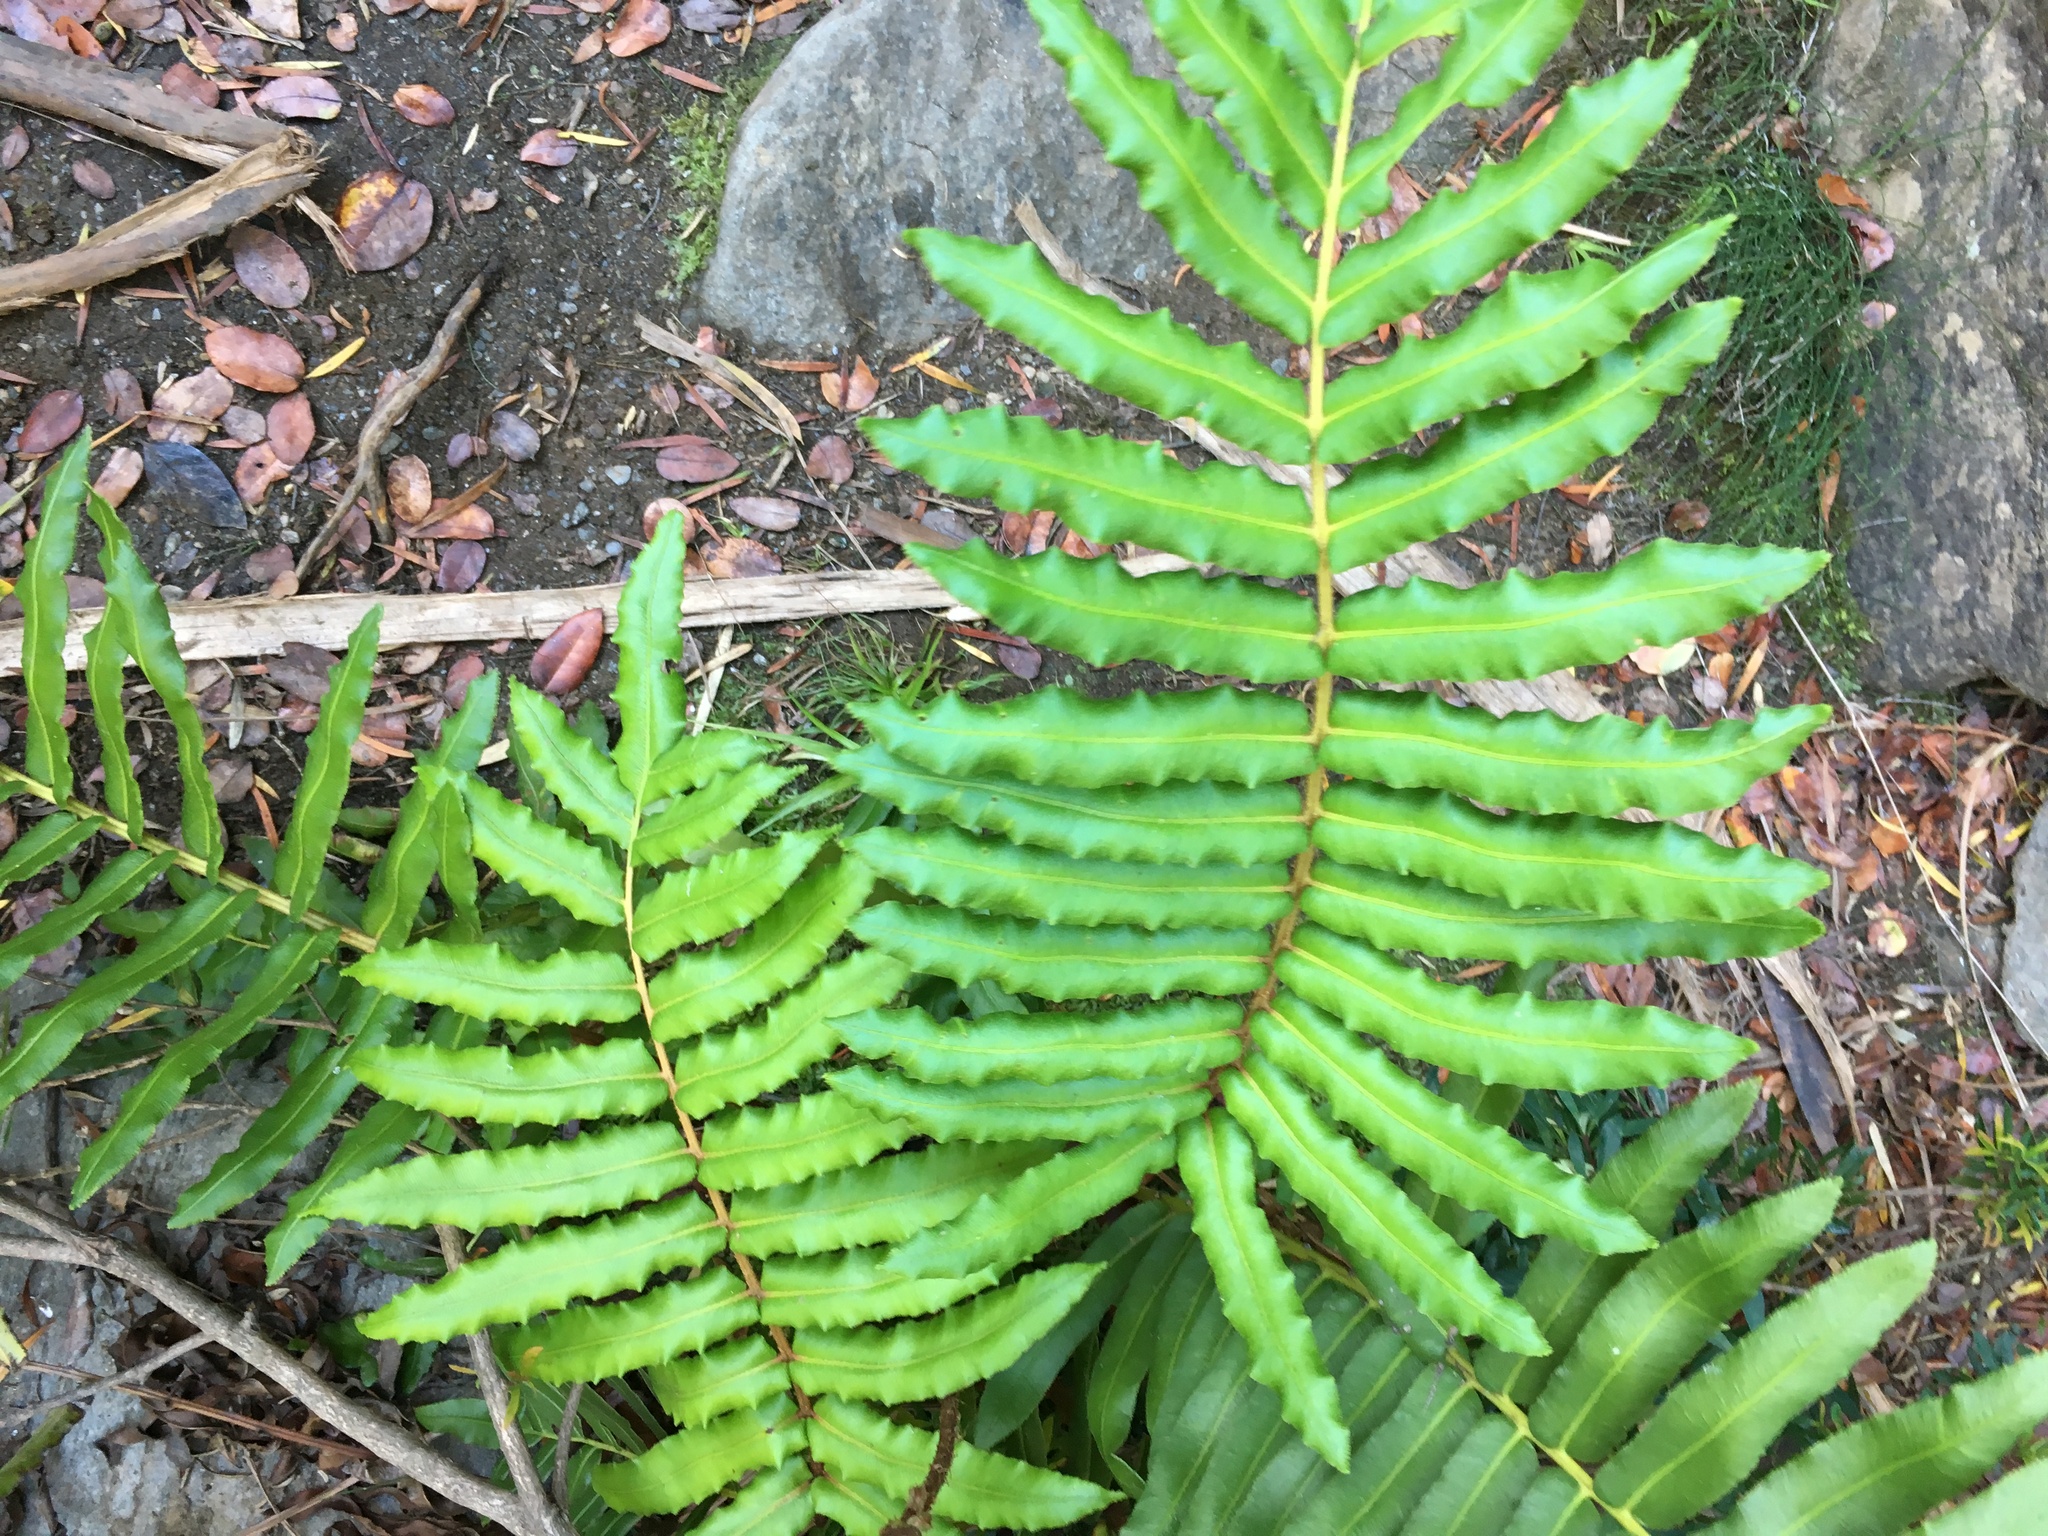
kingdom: Plantae
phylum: Tracheophyta
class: Polypodiopsida
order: Polypodiales
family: Blechnaceae
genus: Parablechnum
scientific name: Parablechnum chilense
